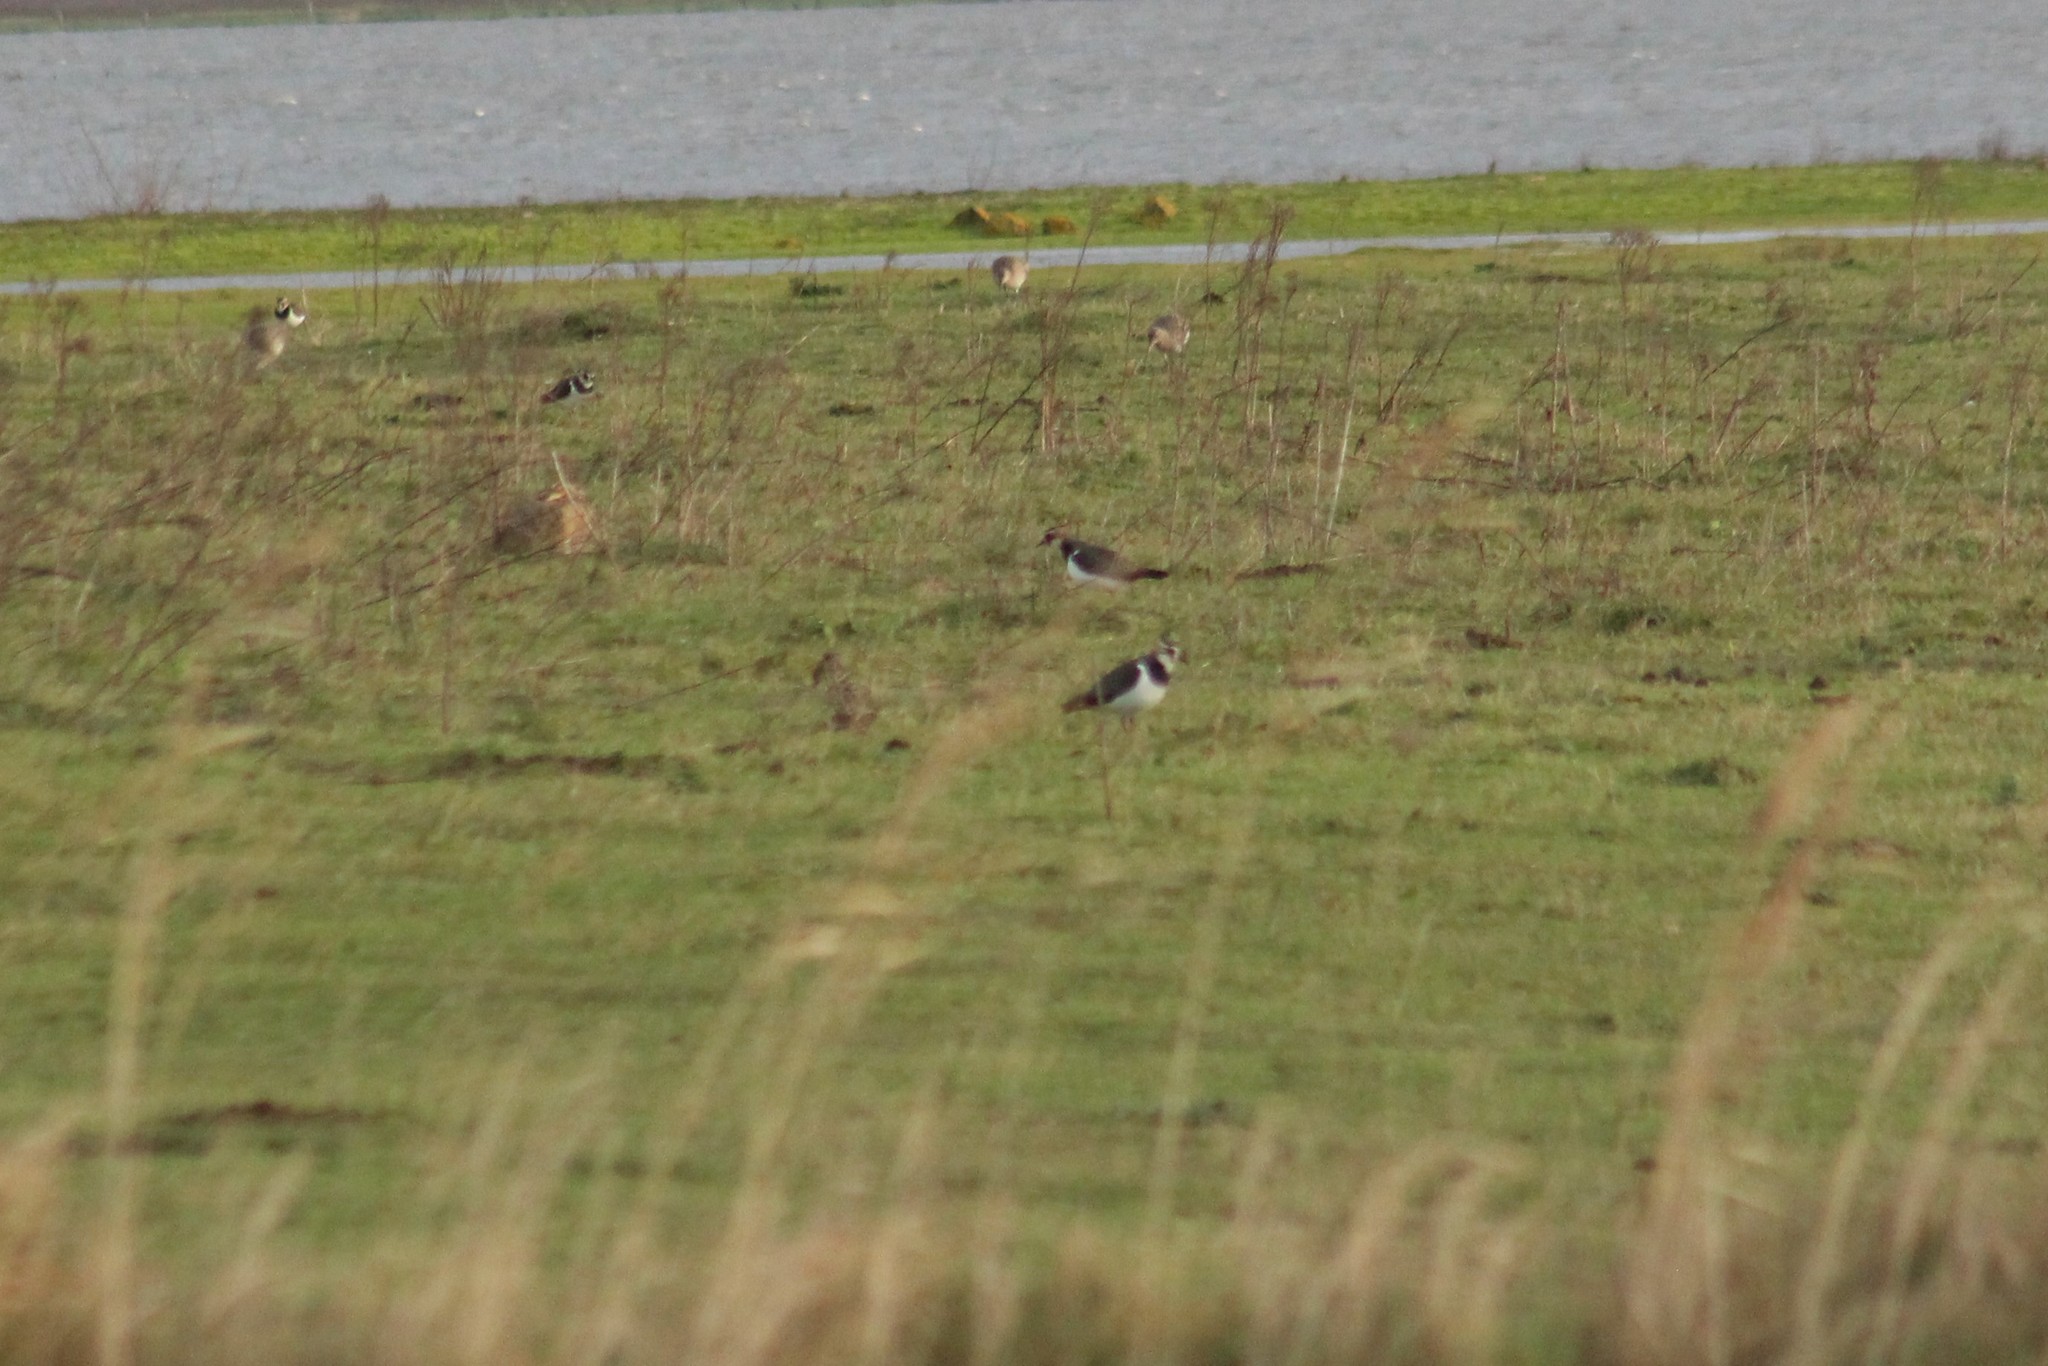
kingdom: Animalia
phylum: Chordata
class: Aves
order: Charadriiformes
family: Charadriidae
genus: Vanellus
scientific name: Vanellus vanellus
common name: Northern lapwing
